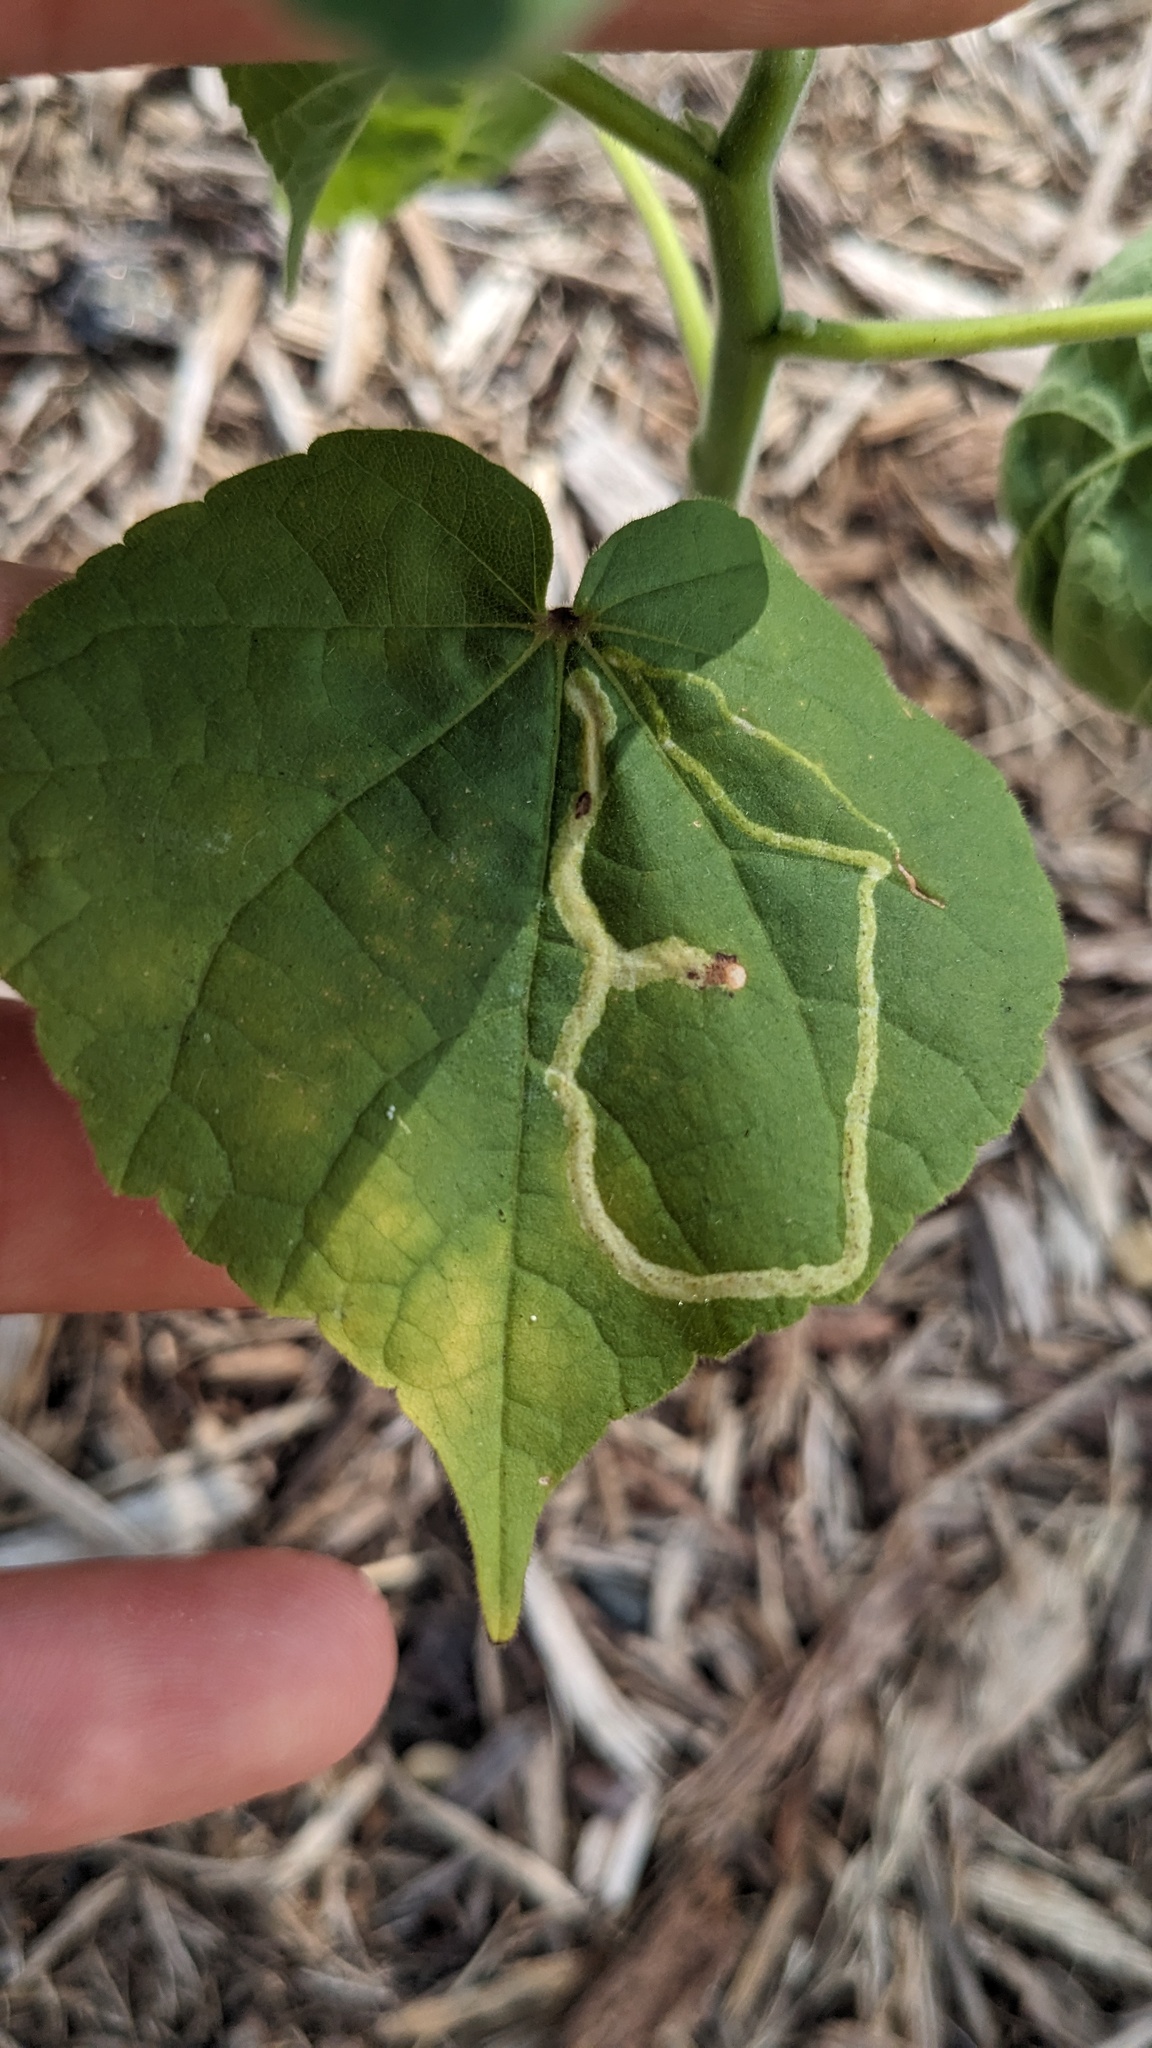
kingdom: Animalia
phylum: Arthropoda
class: Insecta
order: Diptera
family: Agromyzidae
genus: Calycomyza
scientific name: Calycomyza malvae
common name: Mallow leaf miner
